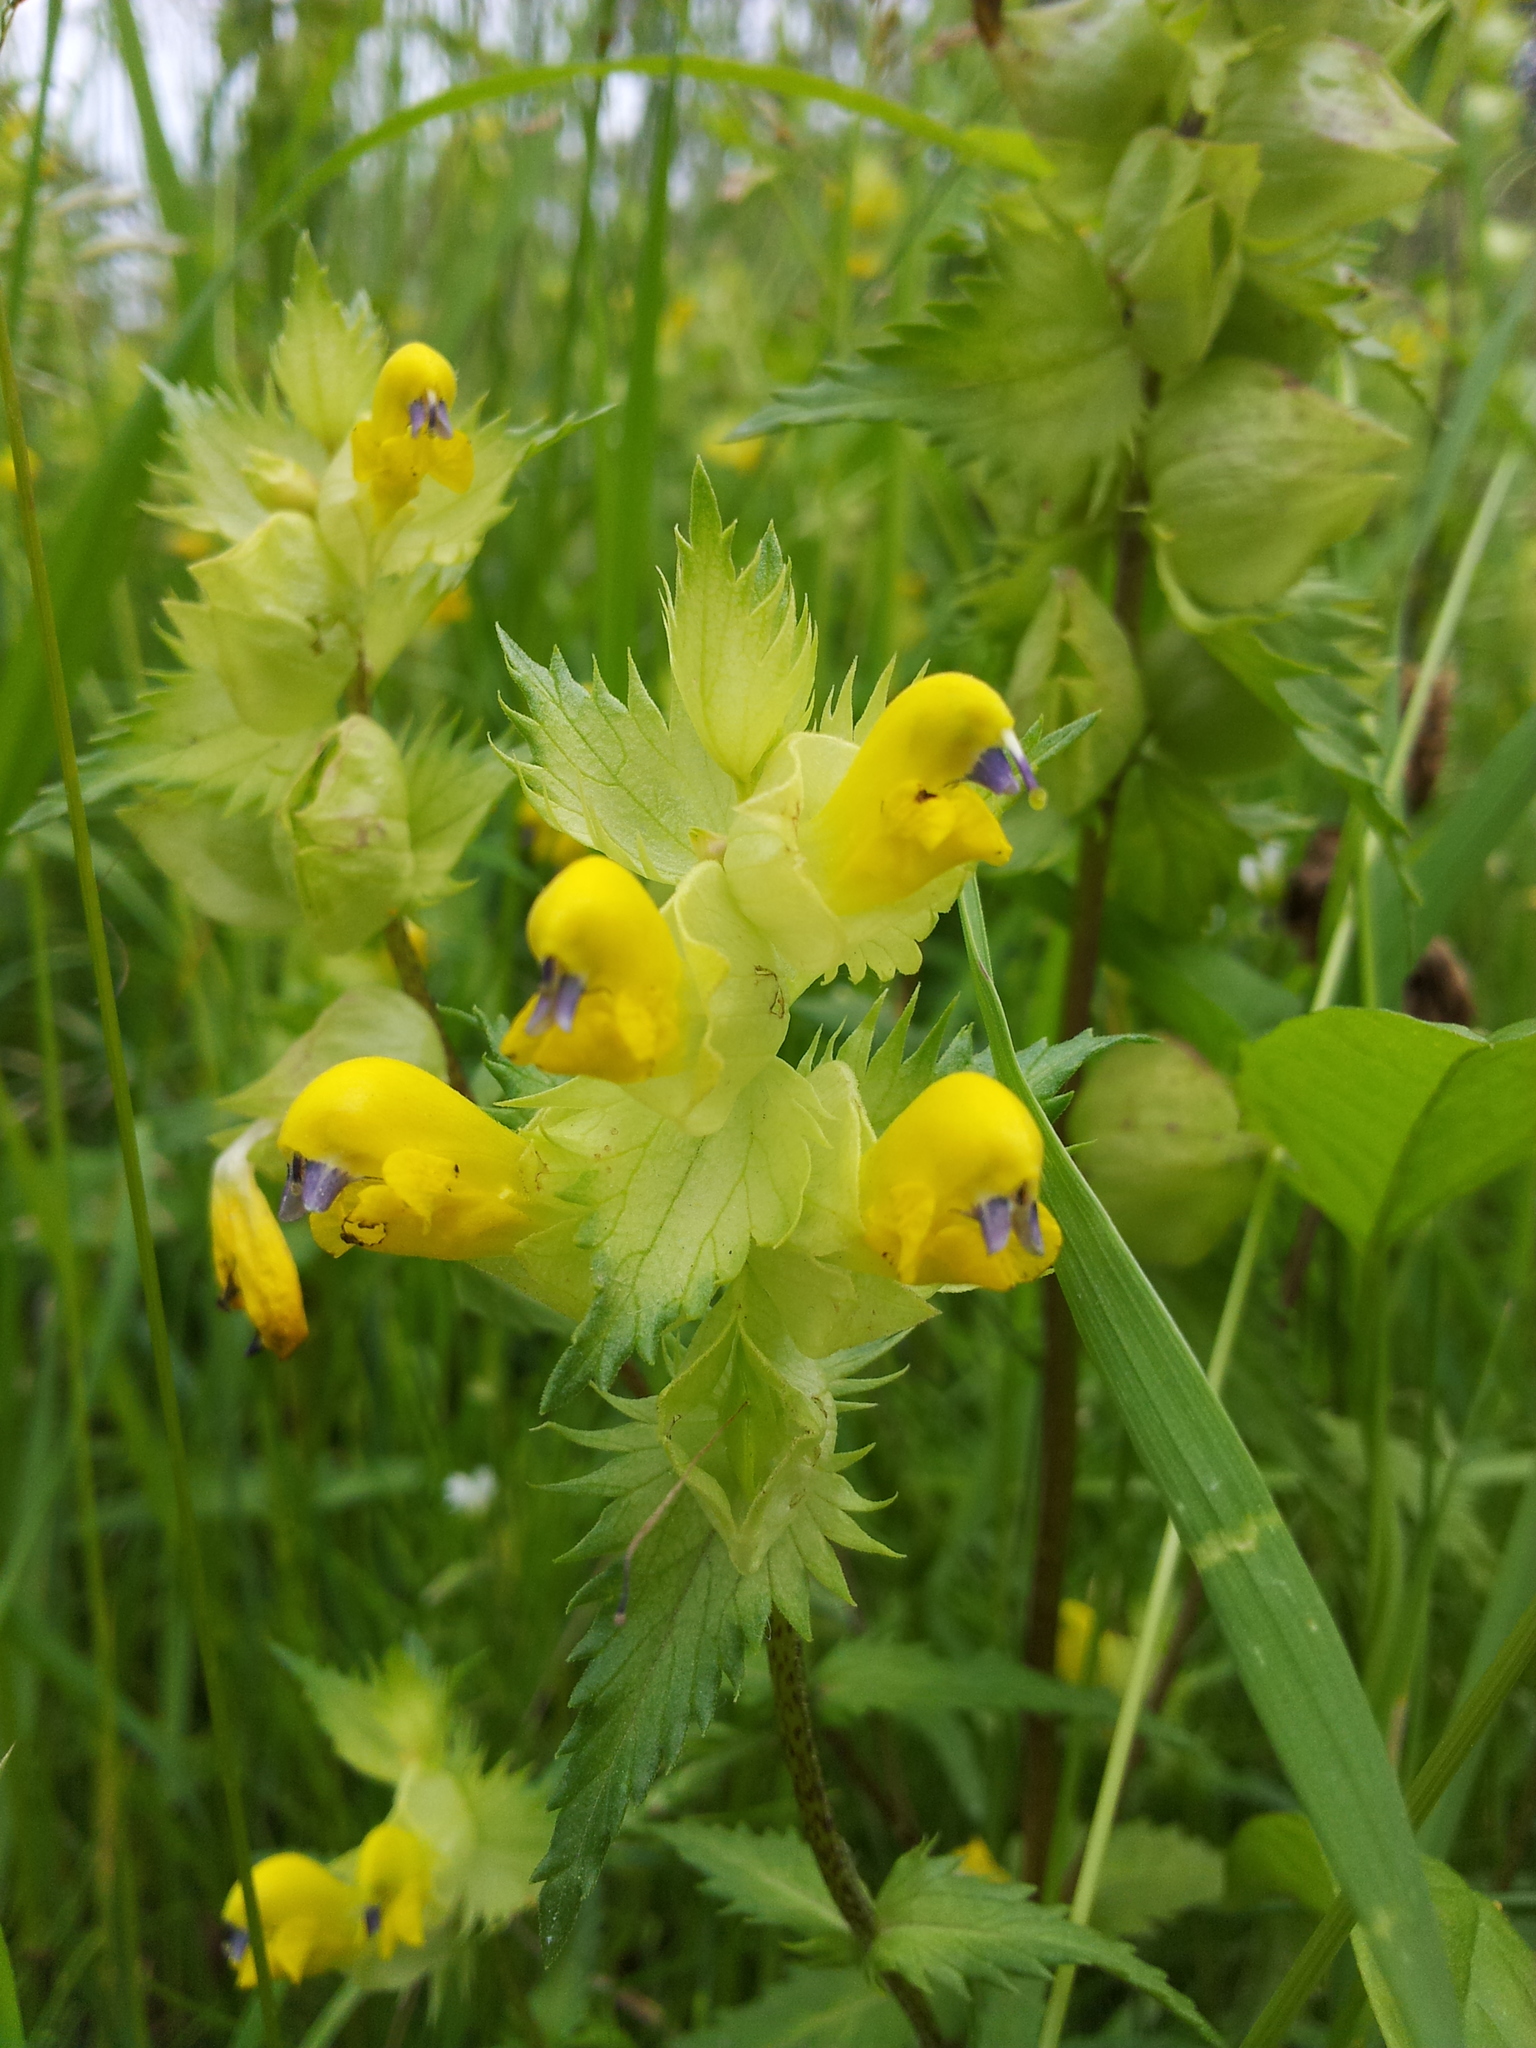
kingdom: Plantae
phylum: Tracheophyta
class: Magnoliopsida
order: Lamiales
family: Orobanchaceae
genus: Rhinanthus
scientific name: Rhinanthus serotinus
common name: Late-flowering yellow rattle
